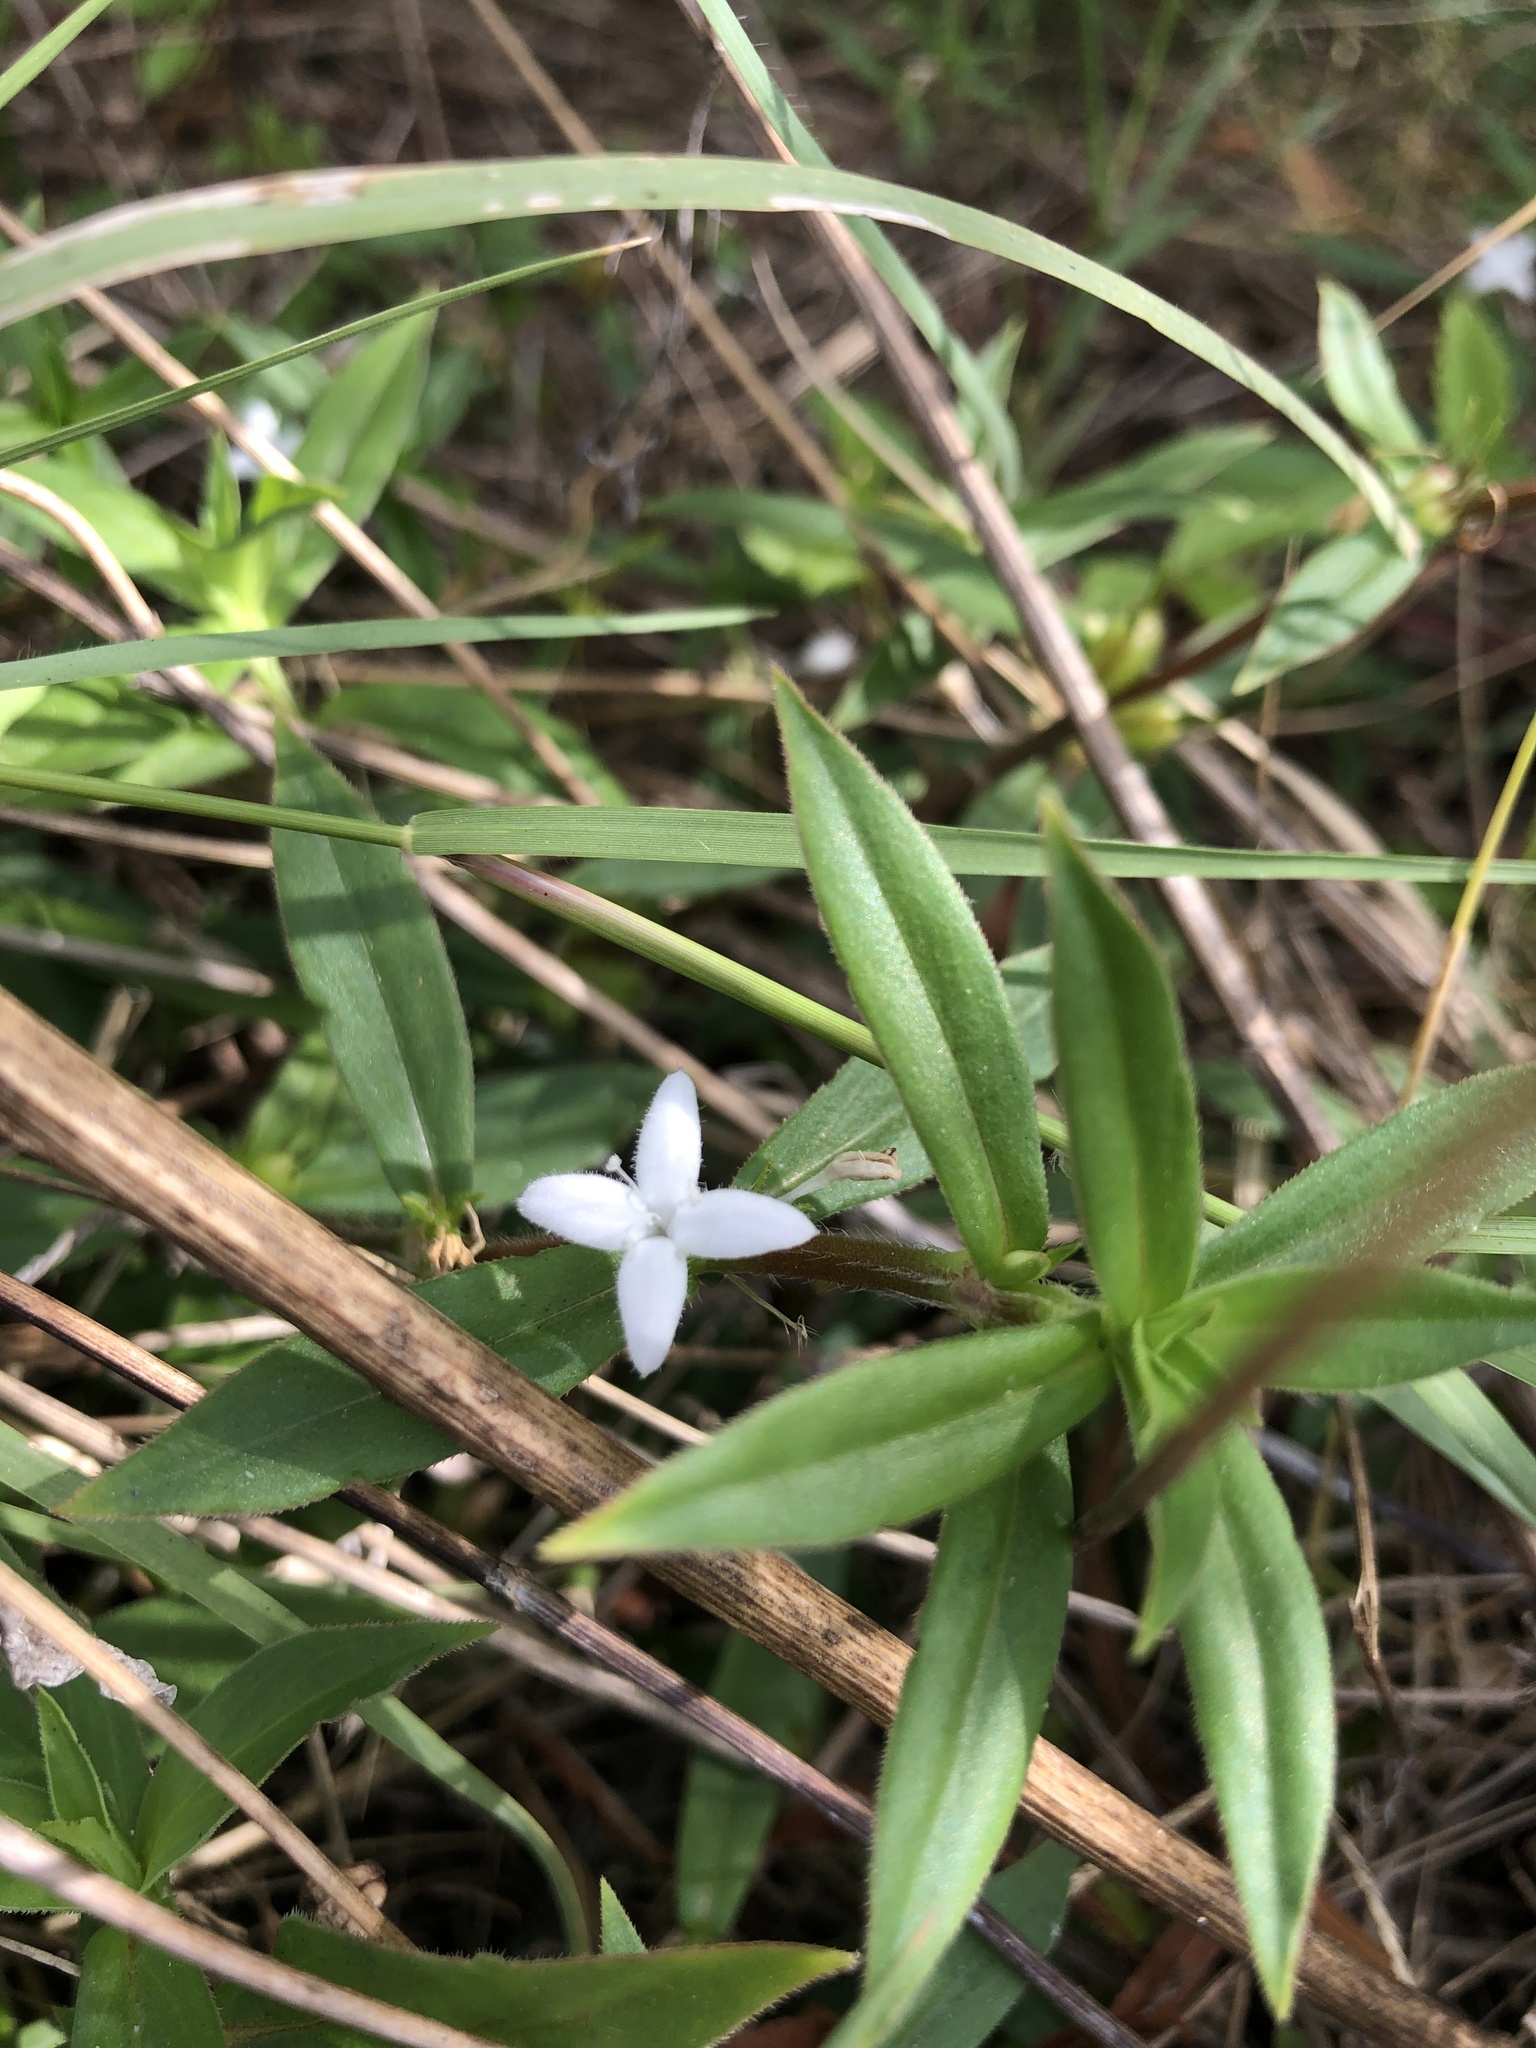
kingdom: Plantae
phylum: Tracheophyta
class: Magnoliopsida
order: Gentianales
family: Rubiaceae
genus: Diodia
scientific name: Diodia virginiana
